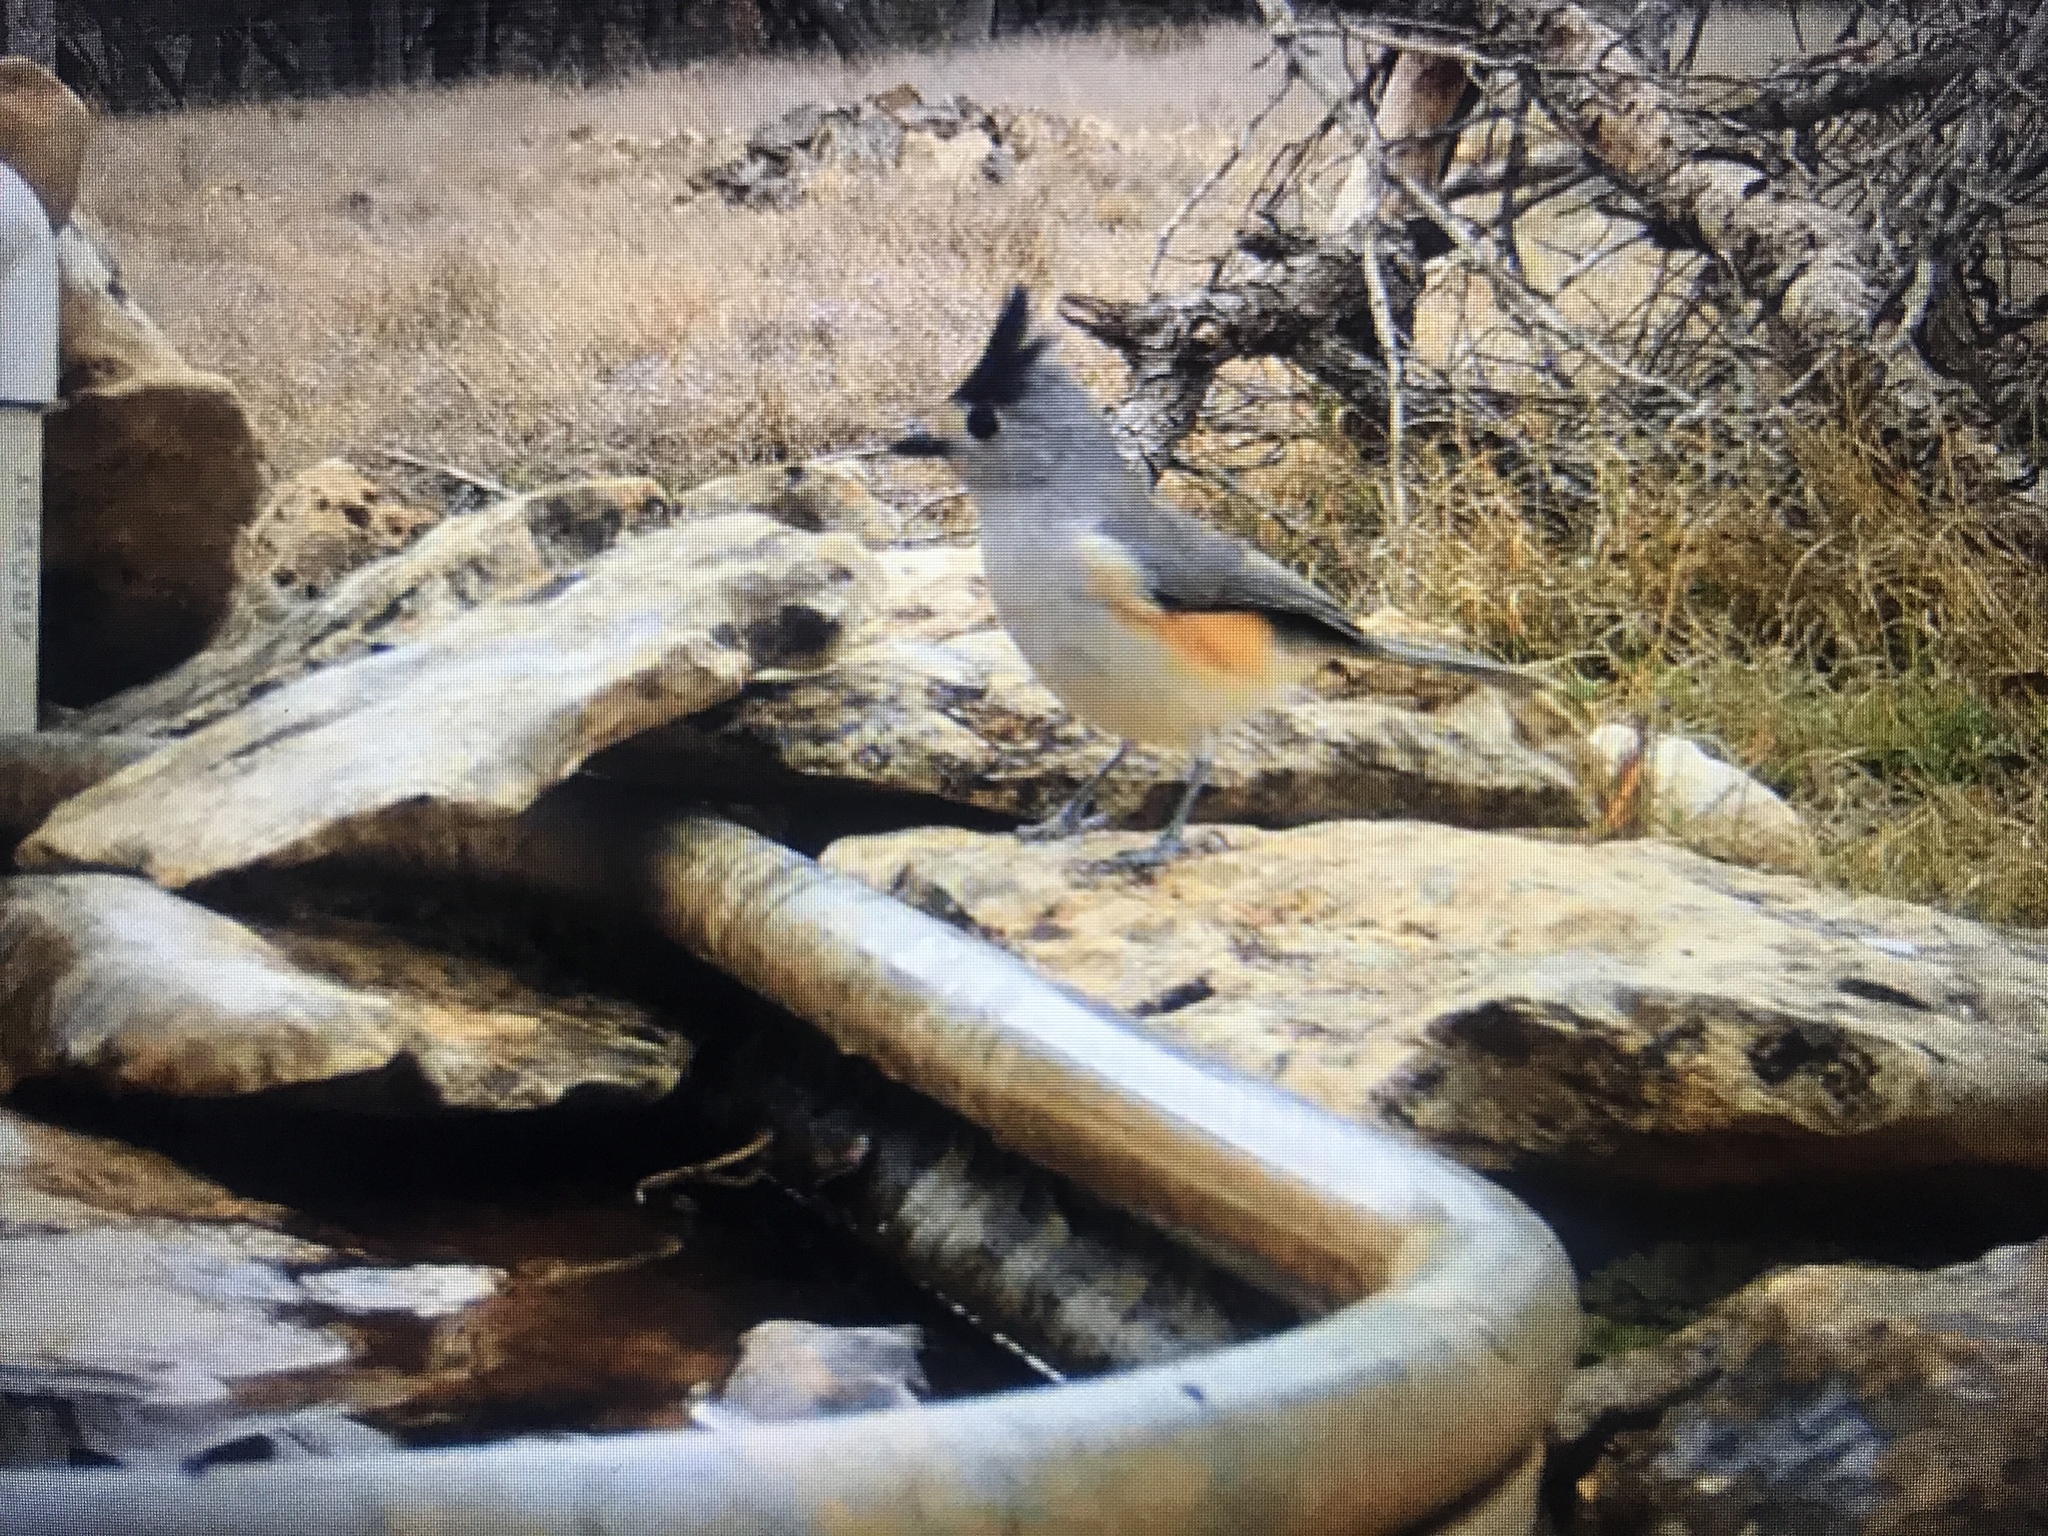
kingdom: Animalia
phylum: Chordata
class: Aves
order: Passeriformes
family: Paridae
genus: Baeolophus
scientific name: Baeolophus atricristatus
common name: Black-crested titmouse
